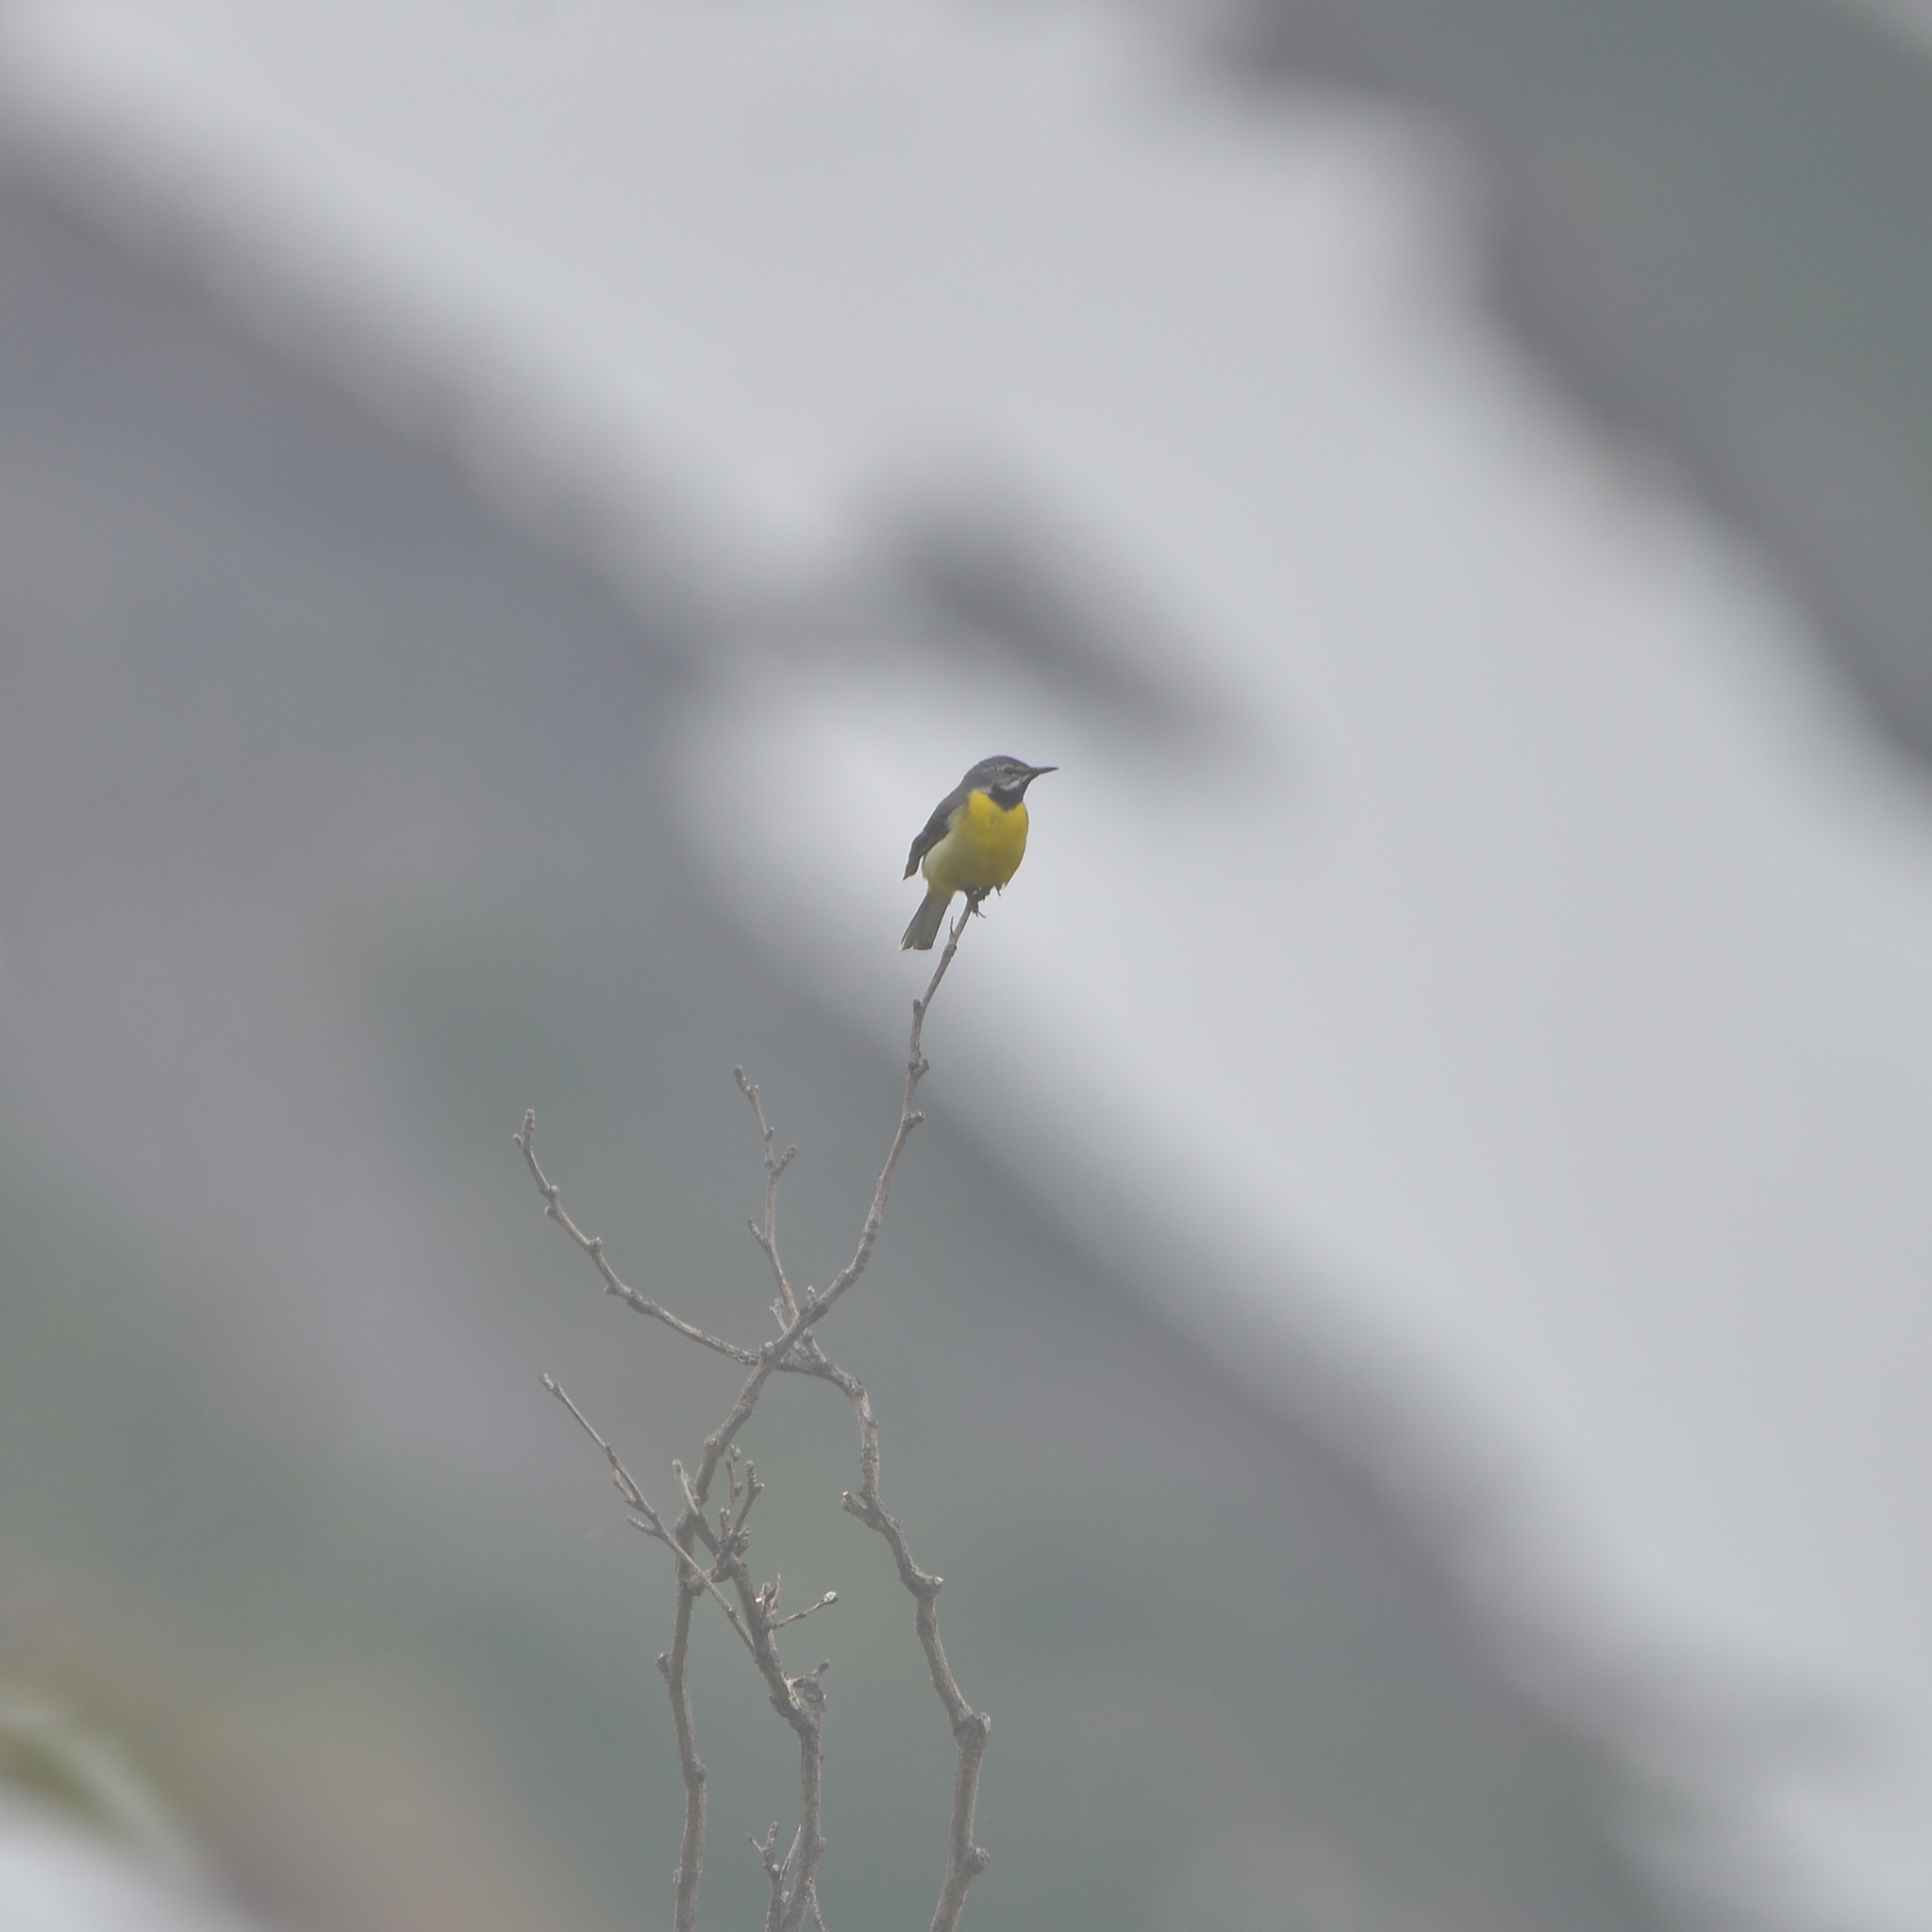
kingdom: Animalia
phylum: Chordata
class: Aves
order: Passeriformes
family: Motacillidae
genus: Motacilla
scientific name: Motacilla cinerea
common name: Grey wagtail
